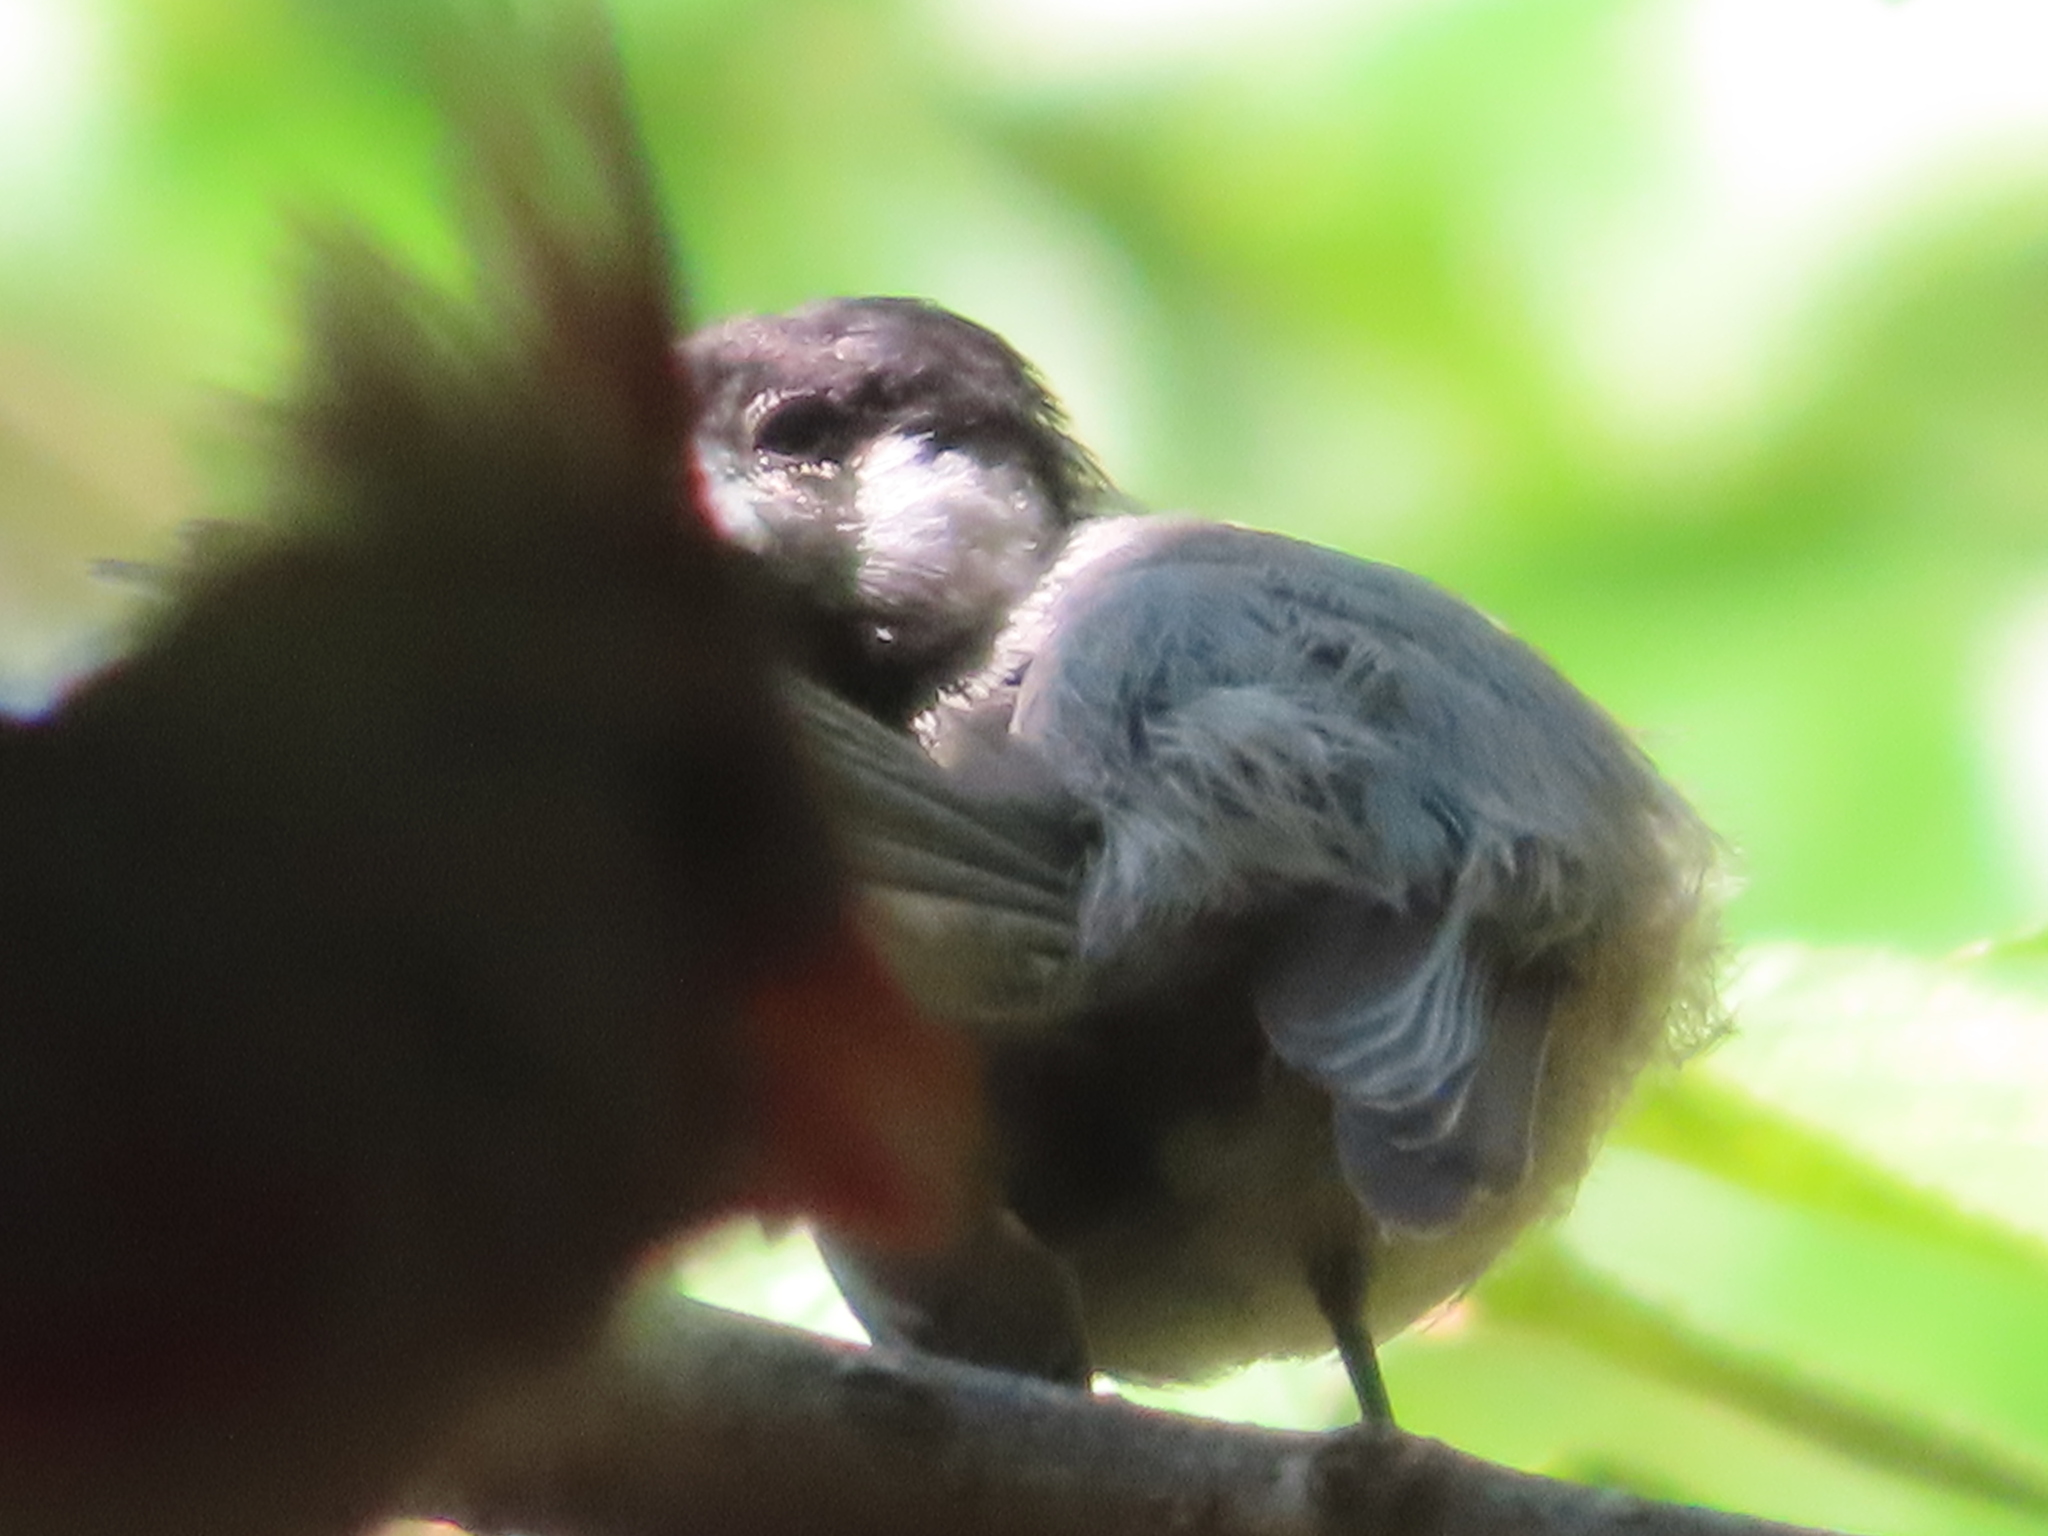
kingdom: Animalia
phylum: Chordata
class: Aves
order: Passeriformes
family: Paridae
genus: Poecile
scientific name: Poecile carolinensis
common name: Carolina chickadee
